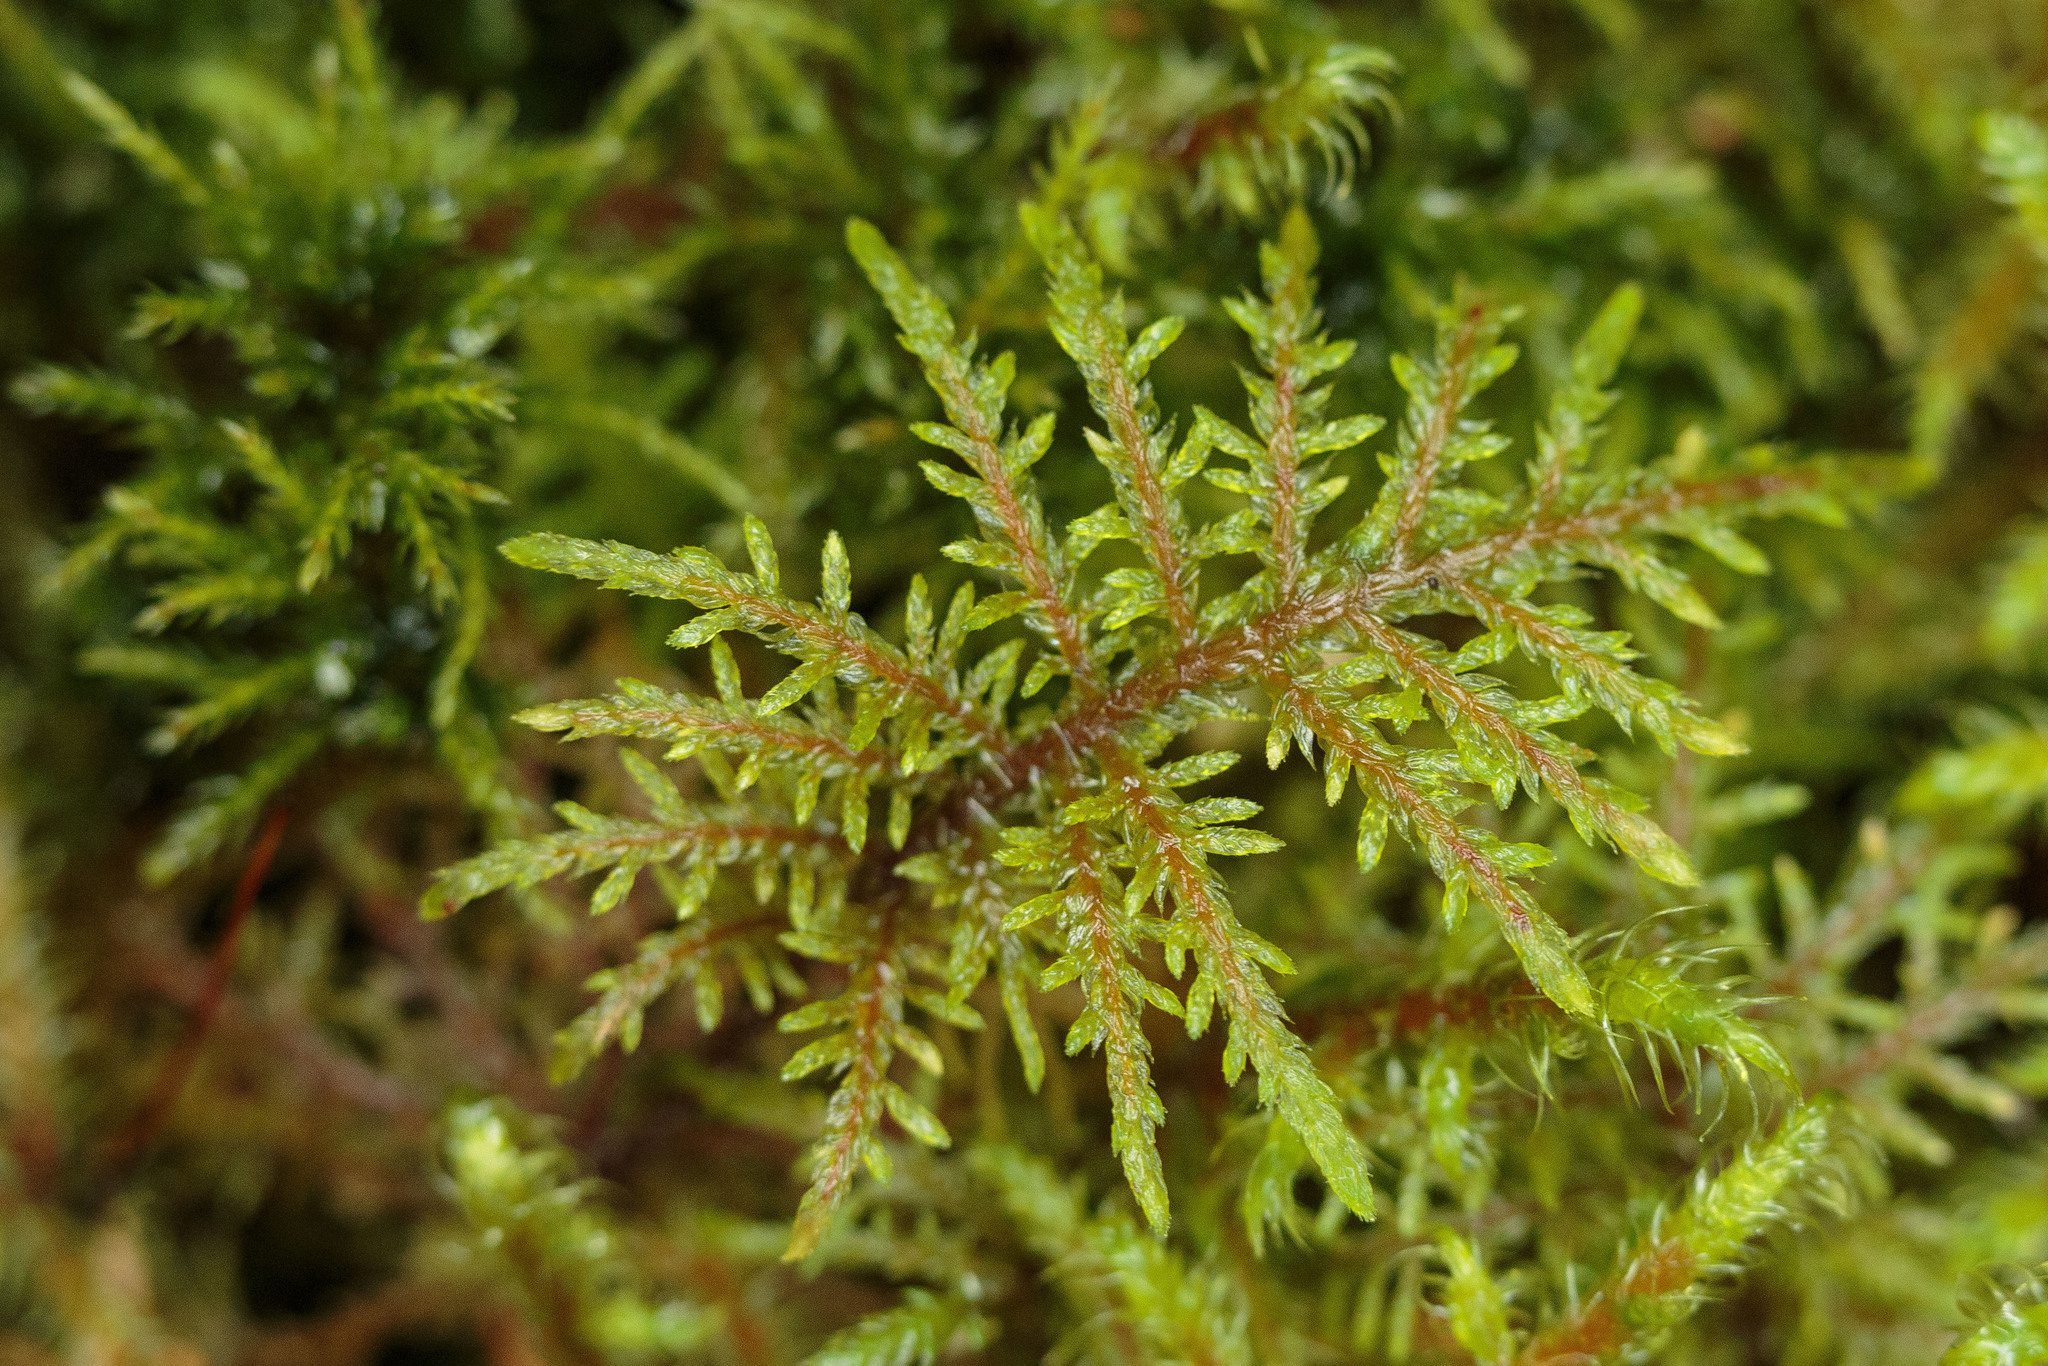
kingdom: Plantae
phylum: Bryophyta
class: Bryopsida
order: Hypnales
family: Hylocomiaceae
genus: Hylocomium
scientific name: Hylocomium splendens
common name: Stairstep moss
